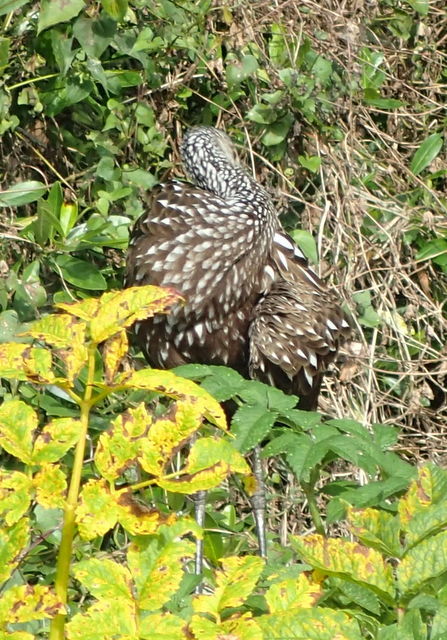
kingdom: Animalia
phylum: Chordata
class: Aves
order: Gruiformes
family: Aramidae
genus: Aramus
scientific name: Aramus guarauna
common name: Limpkin
